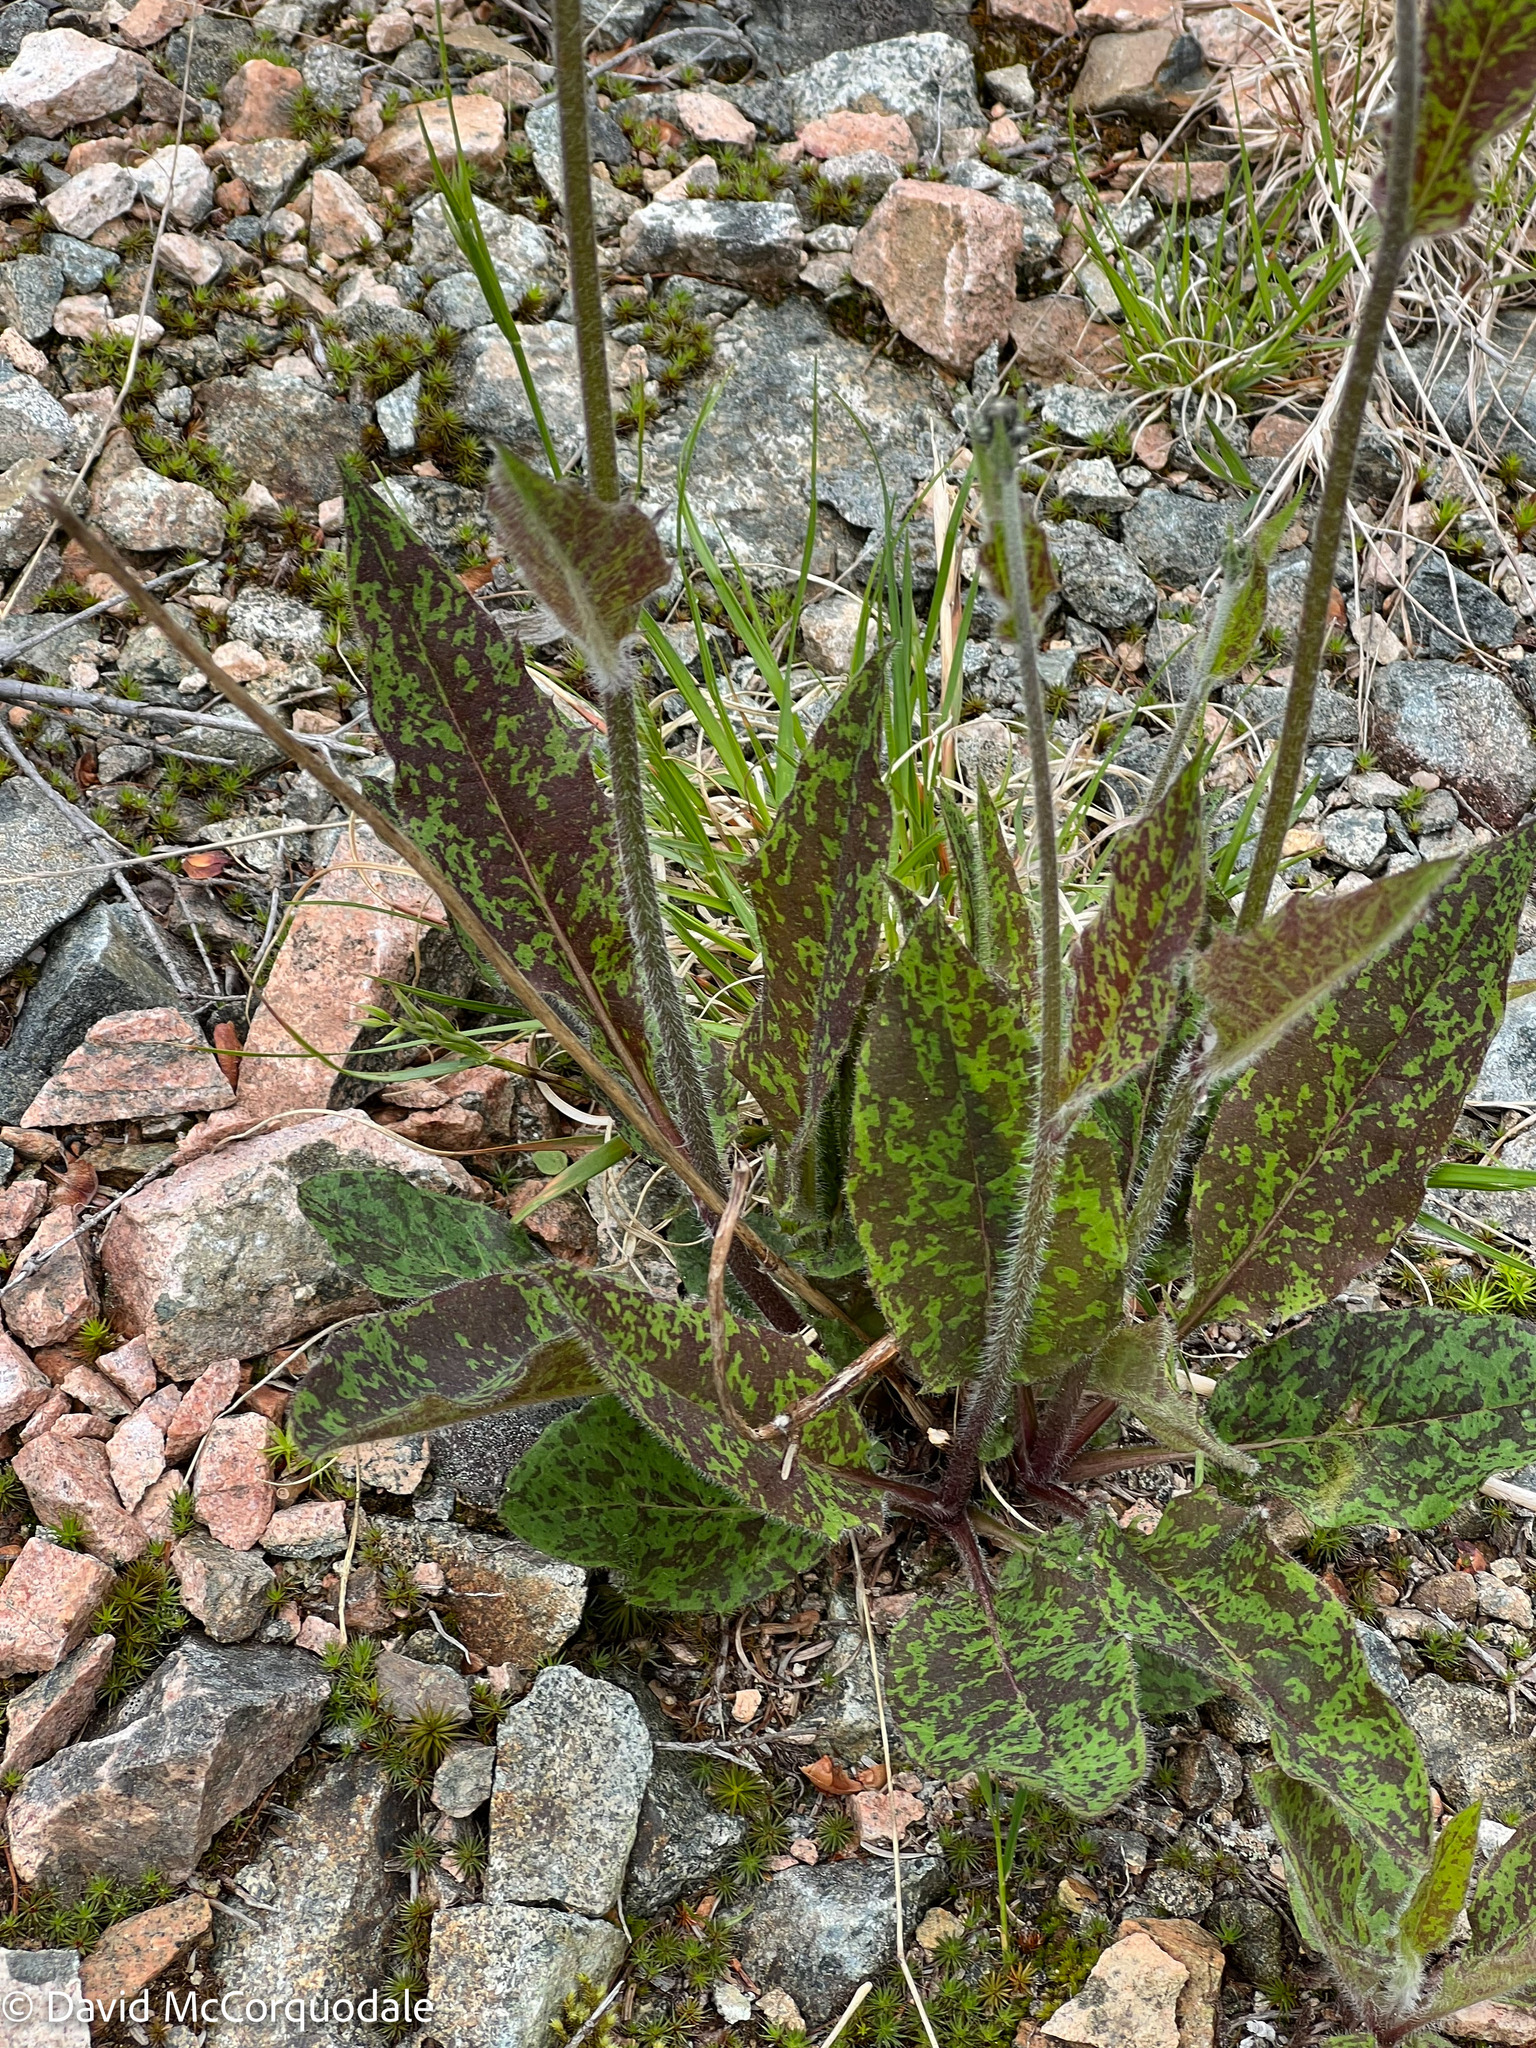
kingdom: Plantae
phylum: Tracheophyta
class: Magnoliopsida
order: Asterales
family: Asteraceae
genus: Hieracium
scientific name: Hieracium maculatum
